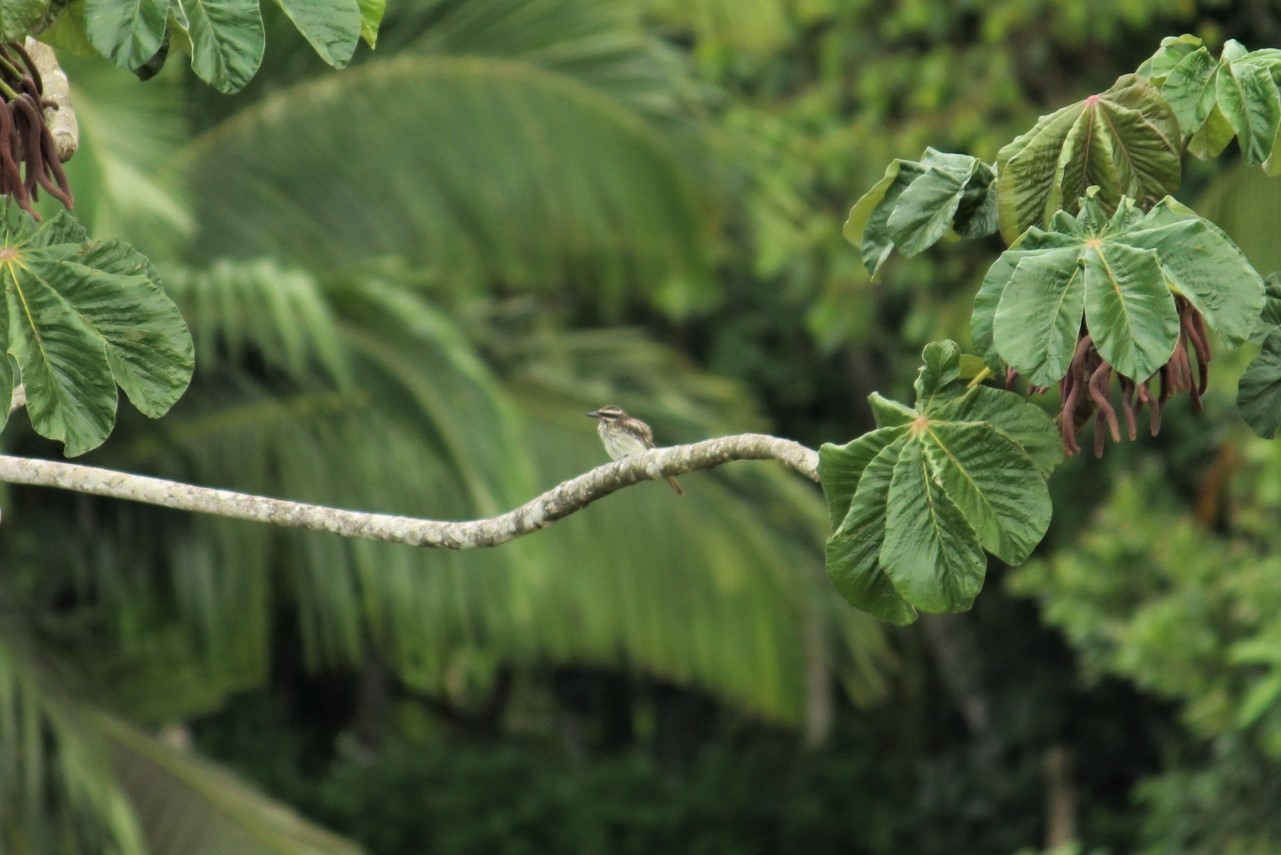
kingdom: Animalia
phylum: Chordata
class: Aves
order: Passeriformes
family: Tyrannidae
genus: Myiodynastes
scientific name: Myiodynastes maculatus
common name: Streaked flycatcher
